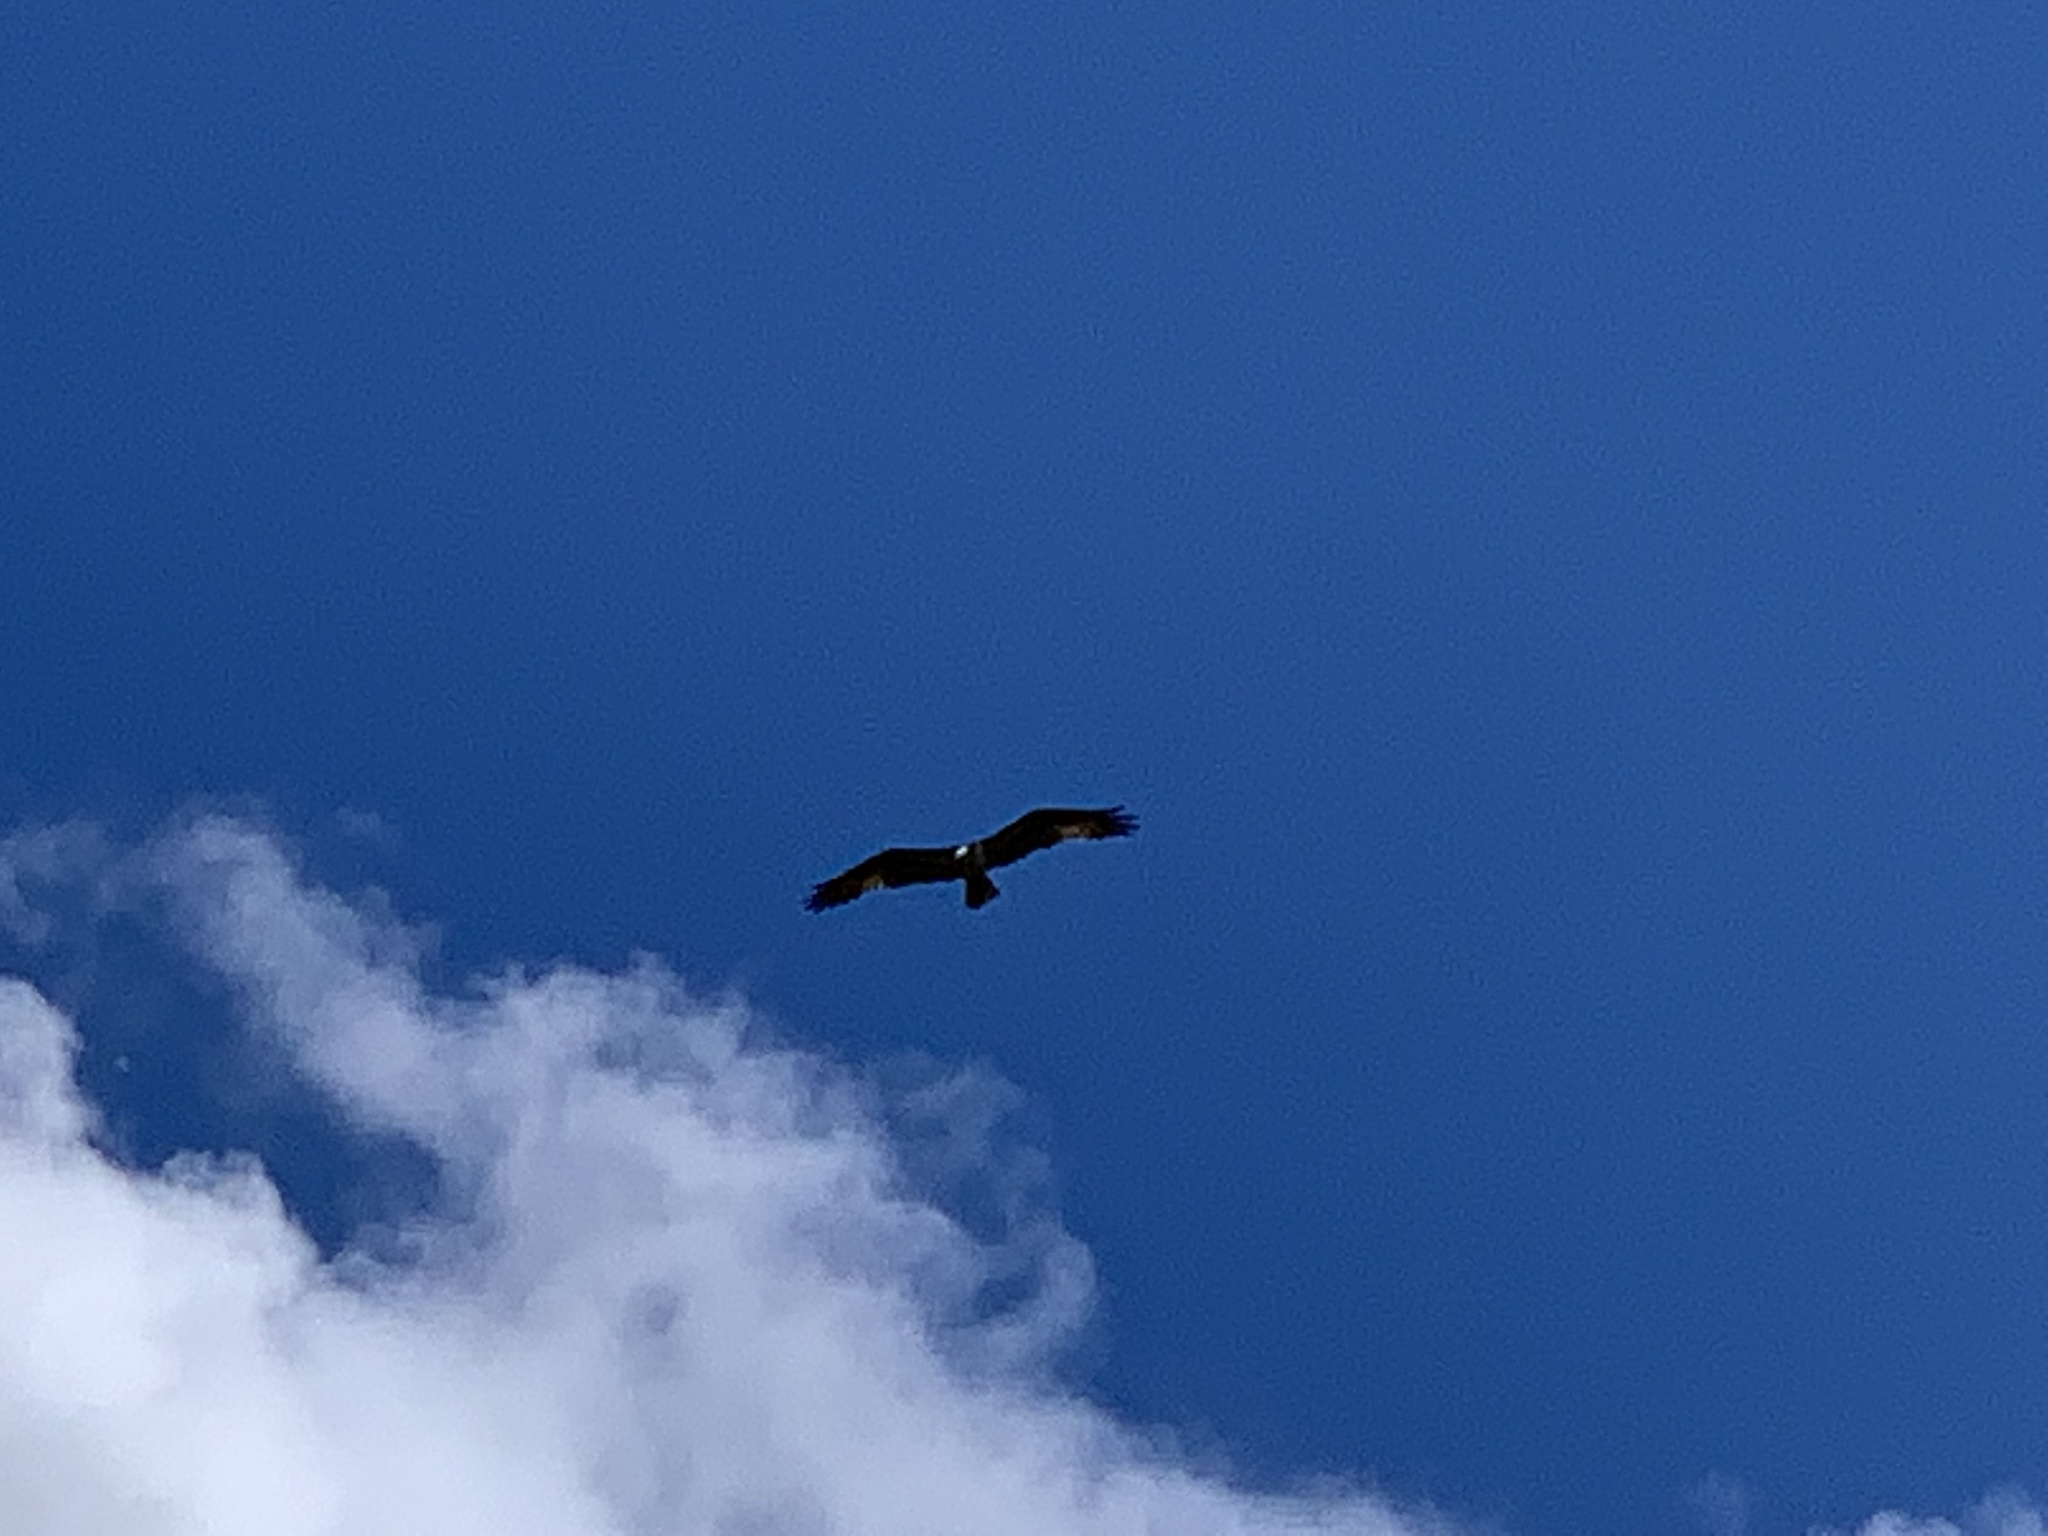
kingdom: Animalia
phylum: Chordata
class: Aves
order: Accipitriformes
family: Pandionidae
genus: Pandion
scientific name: Pandion haliaetus
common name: Osprey
